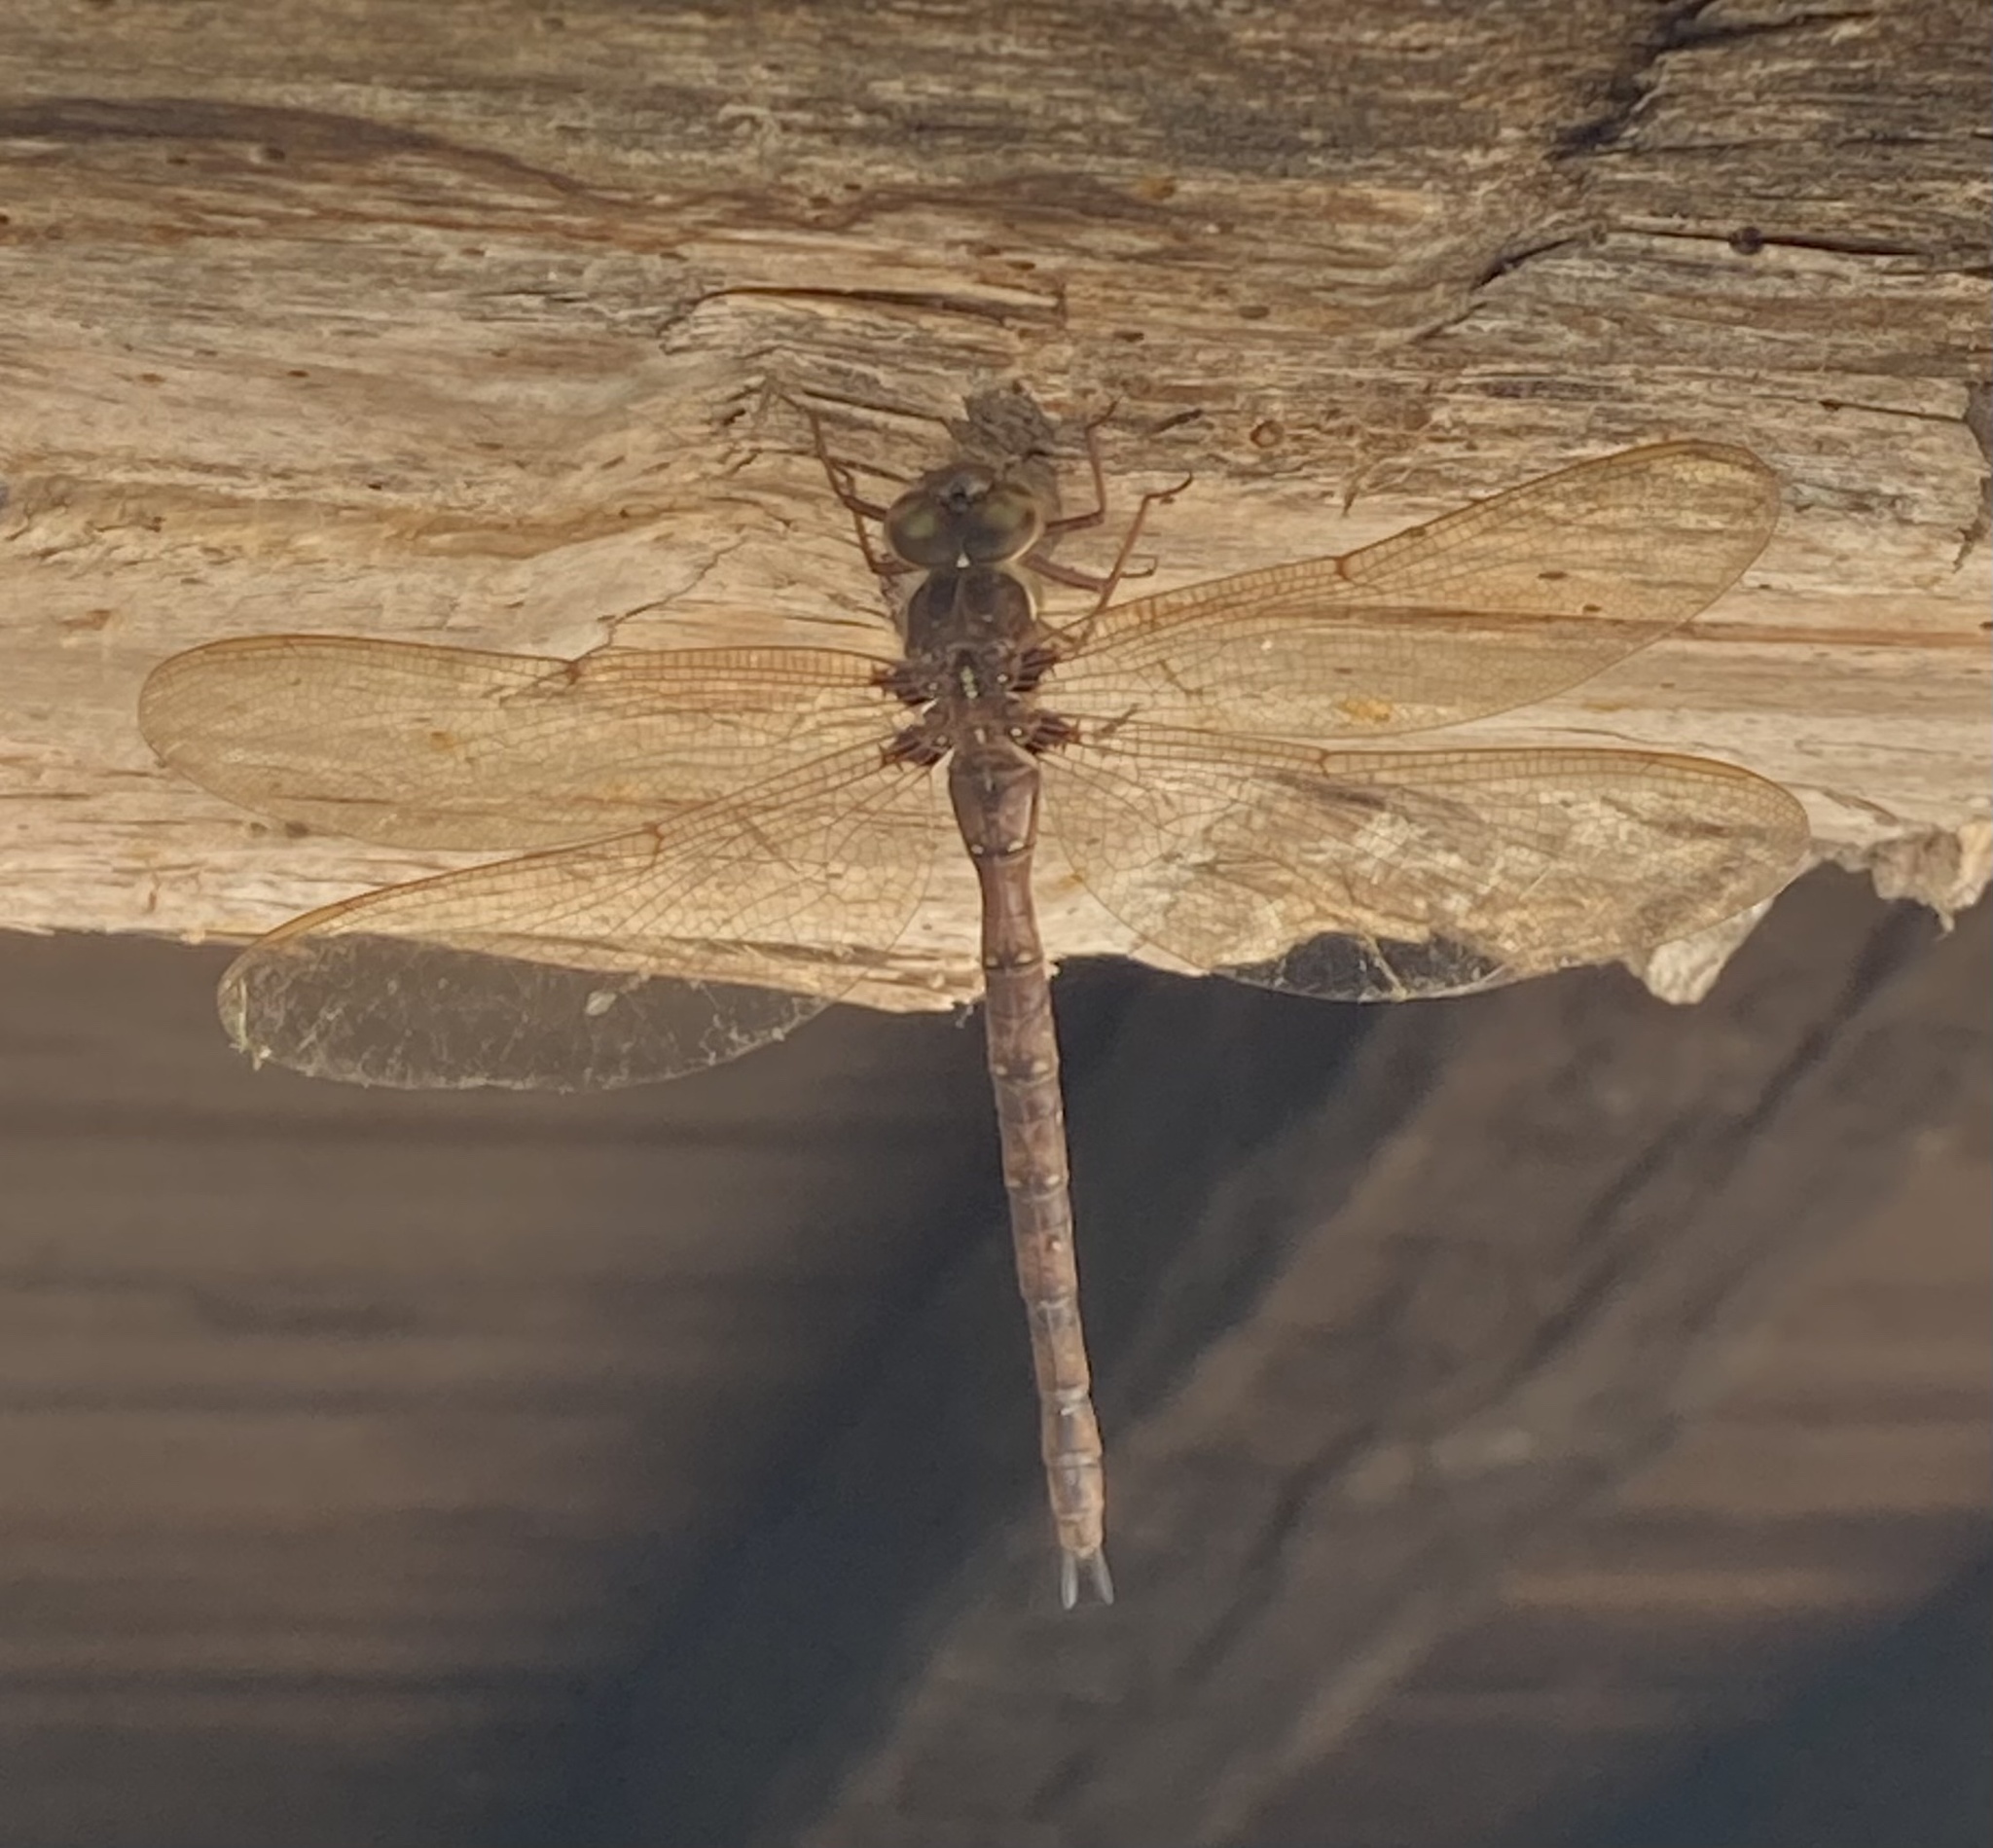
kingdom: Animalia
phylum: Arthropoda
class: Insecta
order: Odonata
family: Aeshnidae
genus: Boyeria
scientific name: Boyeria vinosa
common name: Fawn darner
